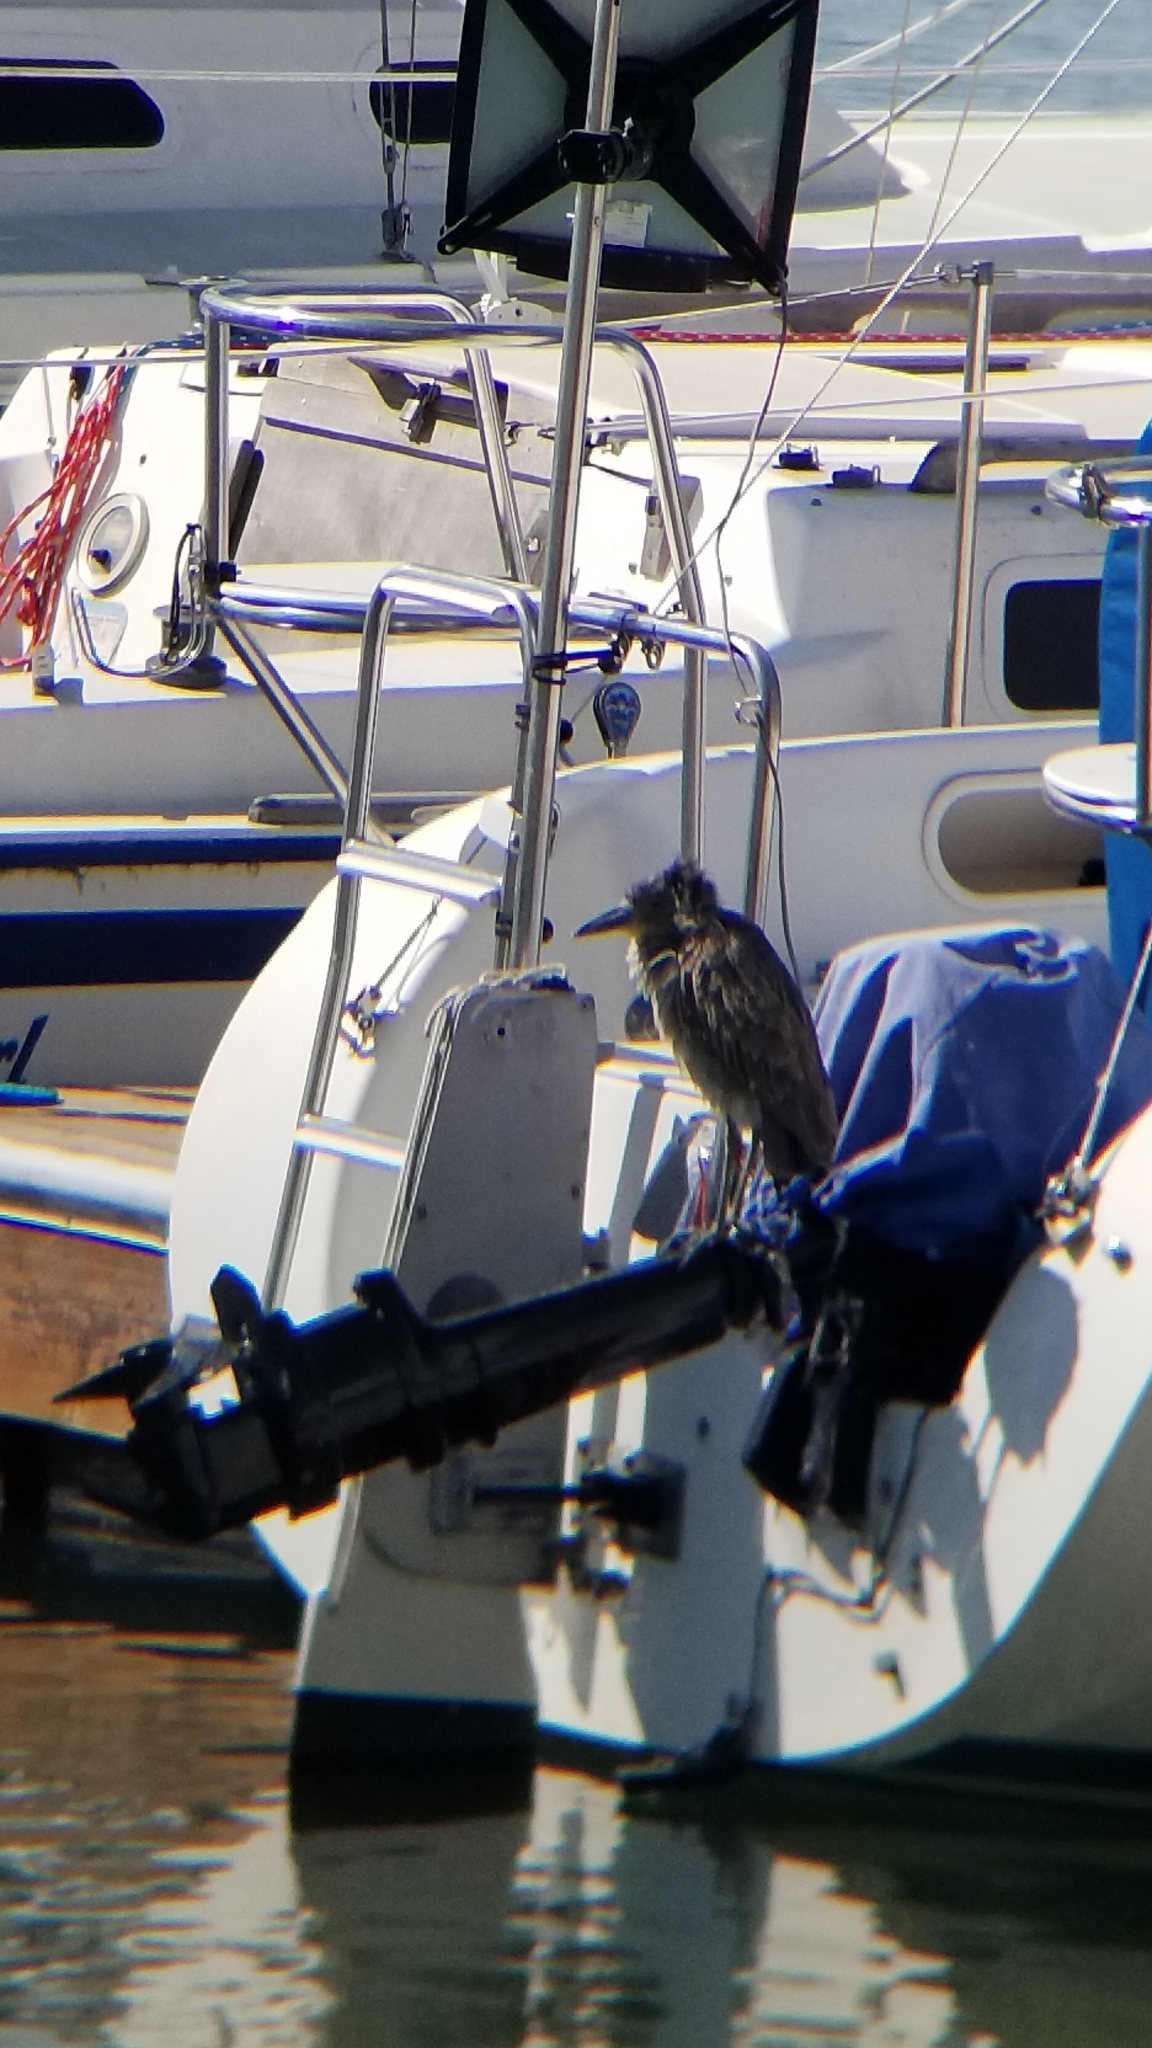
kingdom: Animalia
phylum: Chordata
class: Aves
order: Pelecaniformes
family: Ardeidae
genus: Nycticorax
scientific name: Nycticorax nycticorax
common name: Black-crowned night heron
